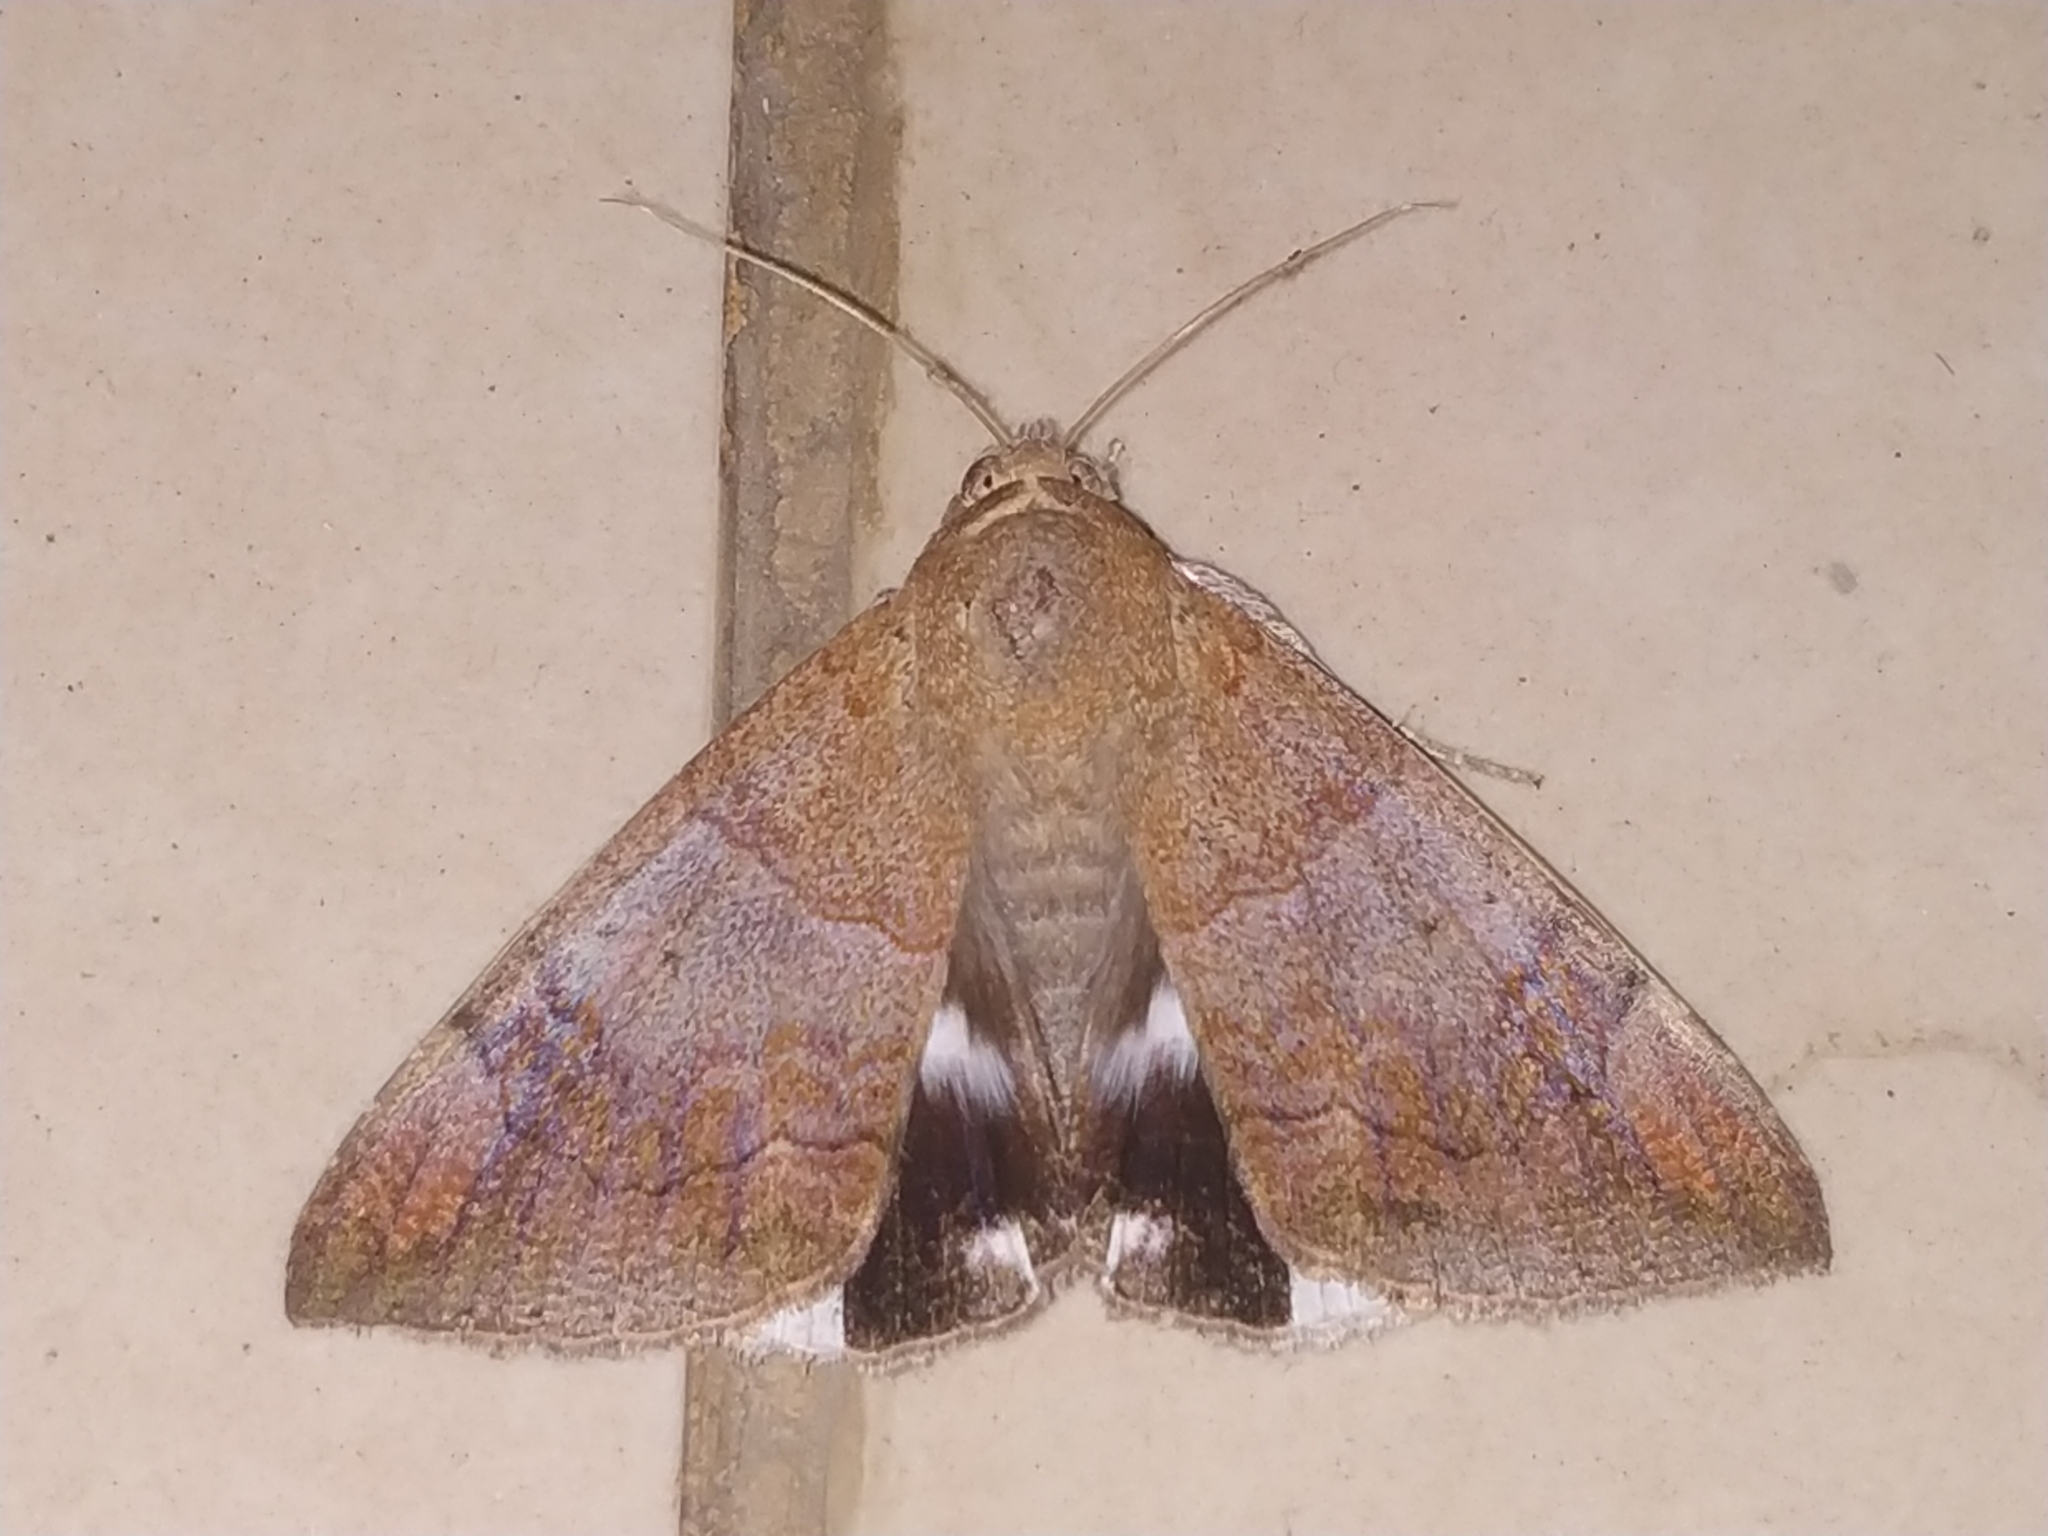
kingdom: Animalia
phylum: Arthropoda
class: Insecta
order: Lepidoptera
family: Erebidae
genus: Achaea
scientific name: Achaea janata
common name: Croton caterpillar
